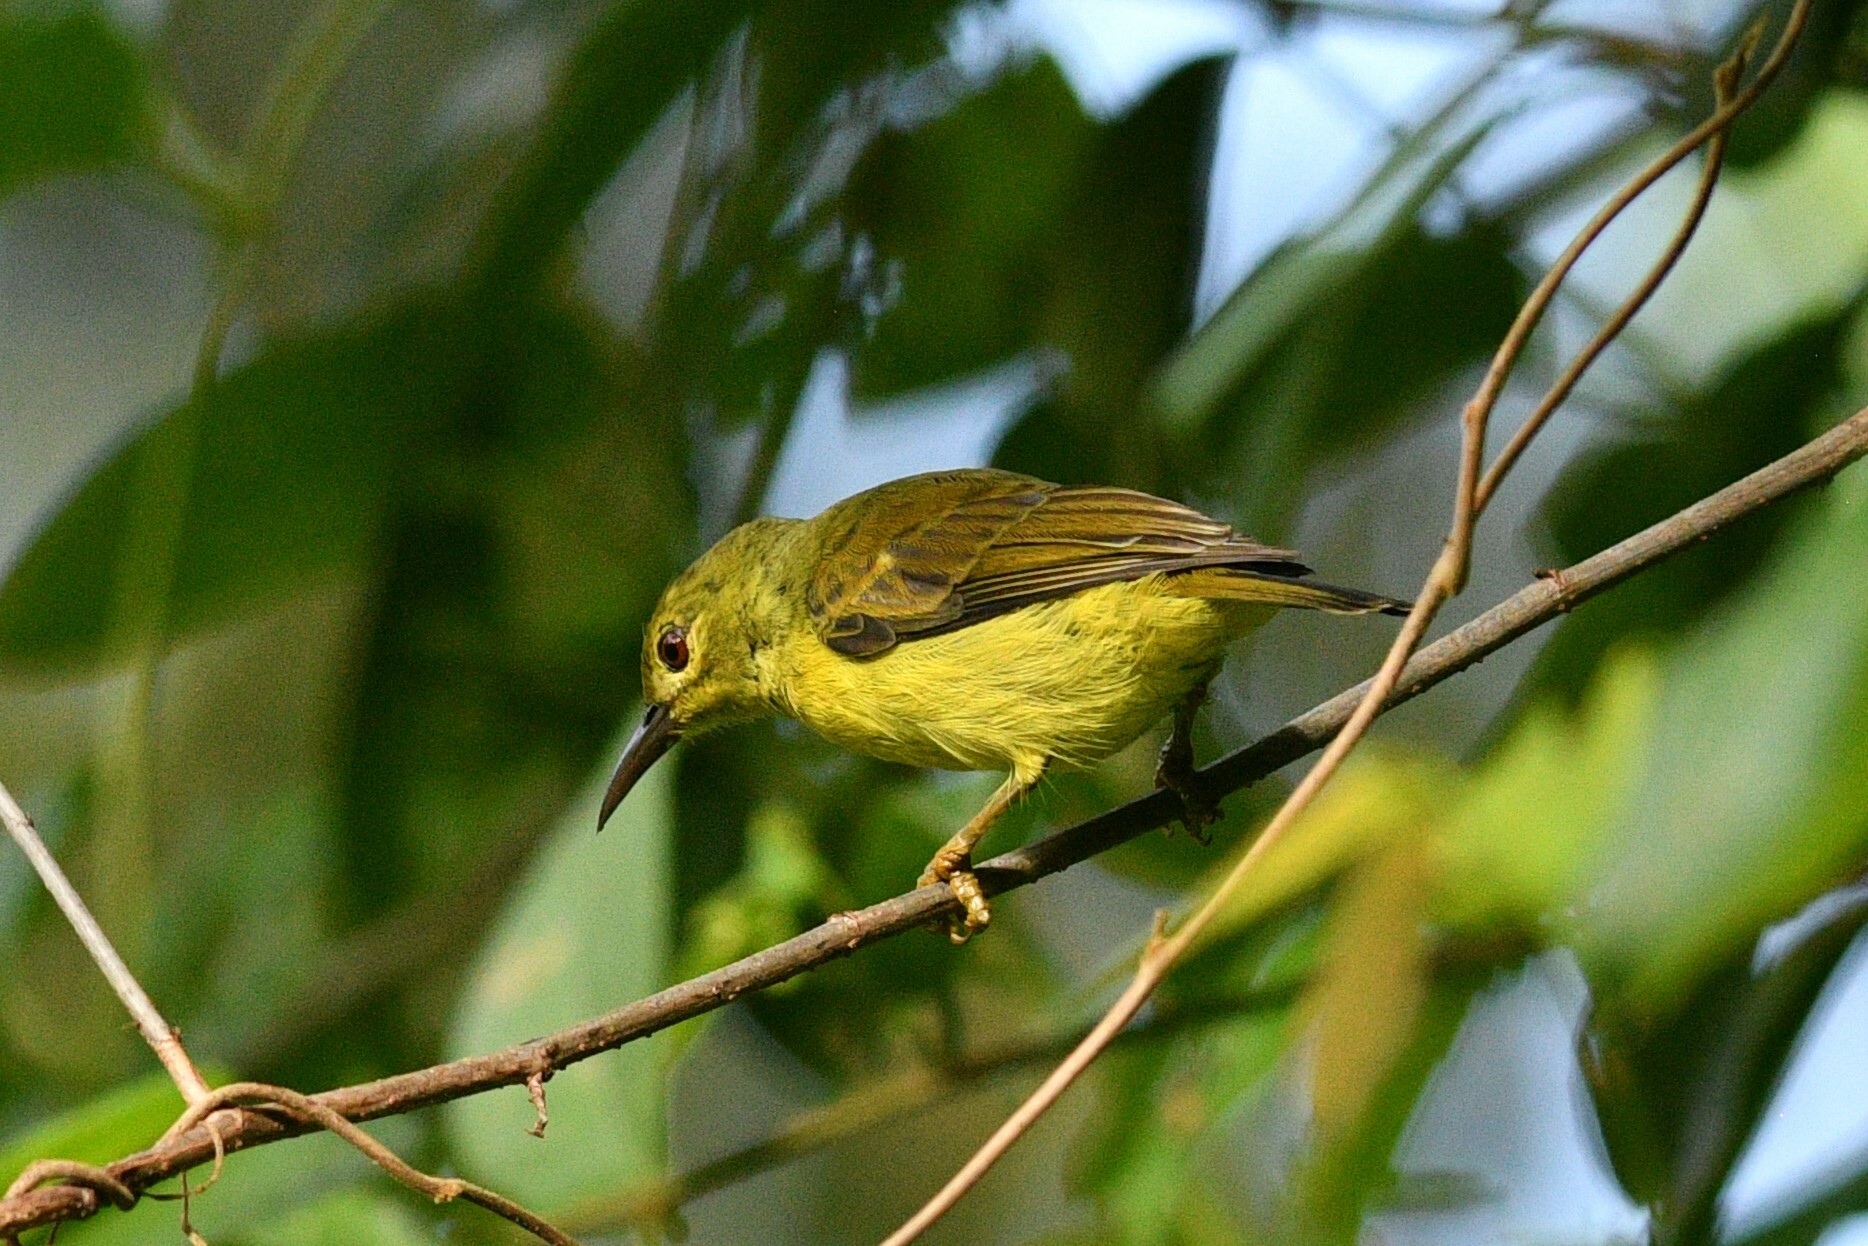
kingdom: Animalia
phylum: Chordata
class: Aves
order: Passeriformes
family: Nectariniidae
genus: Anthreptes
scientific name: Anthreptes malacensis
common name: Brown-throated sunbird
